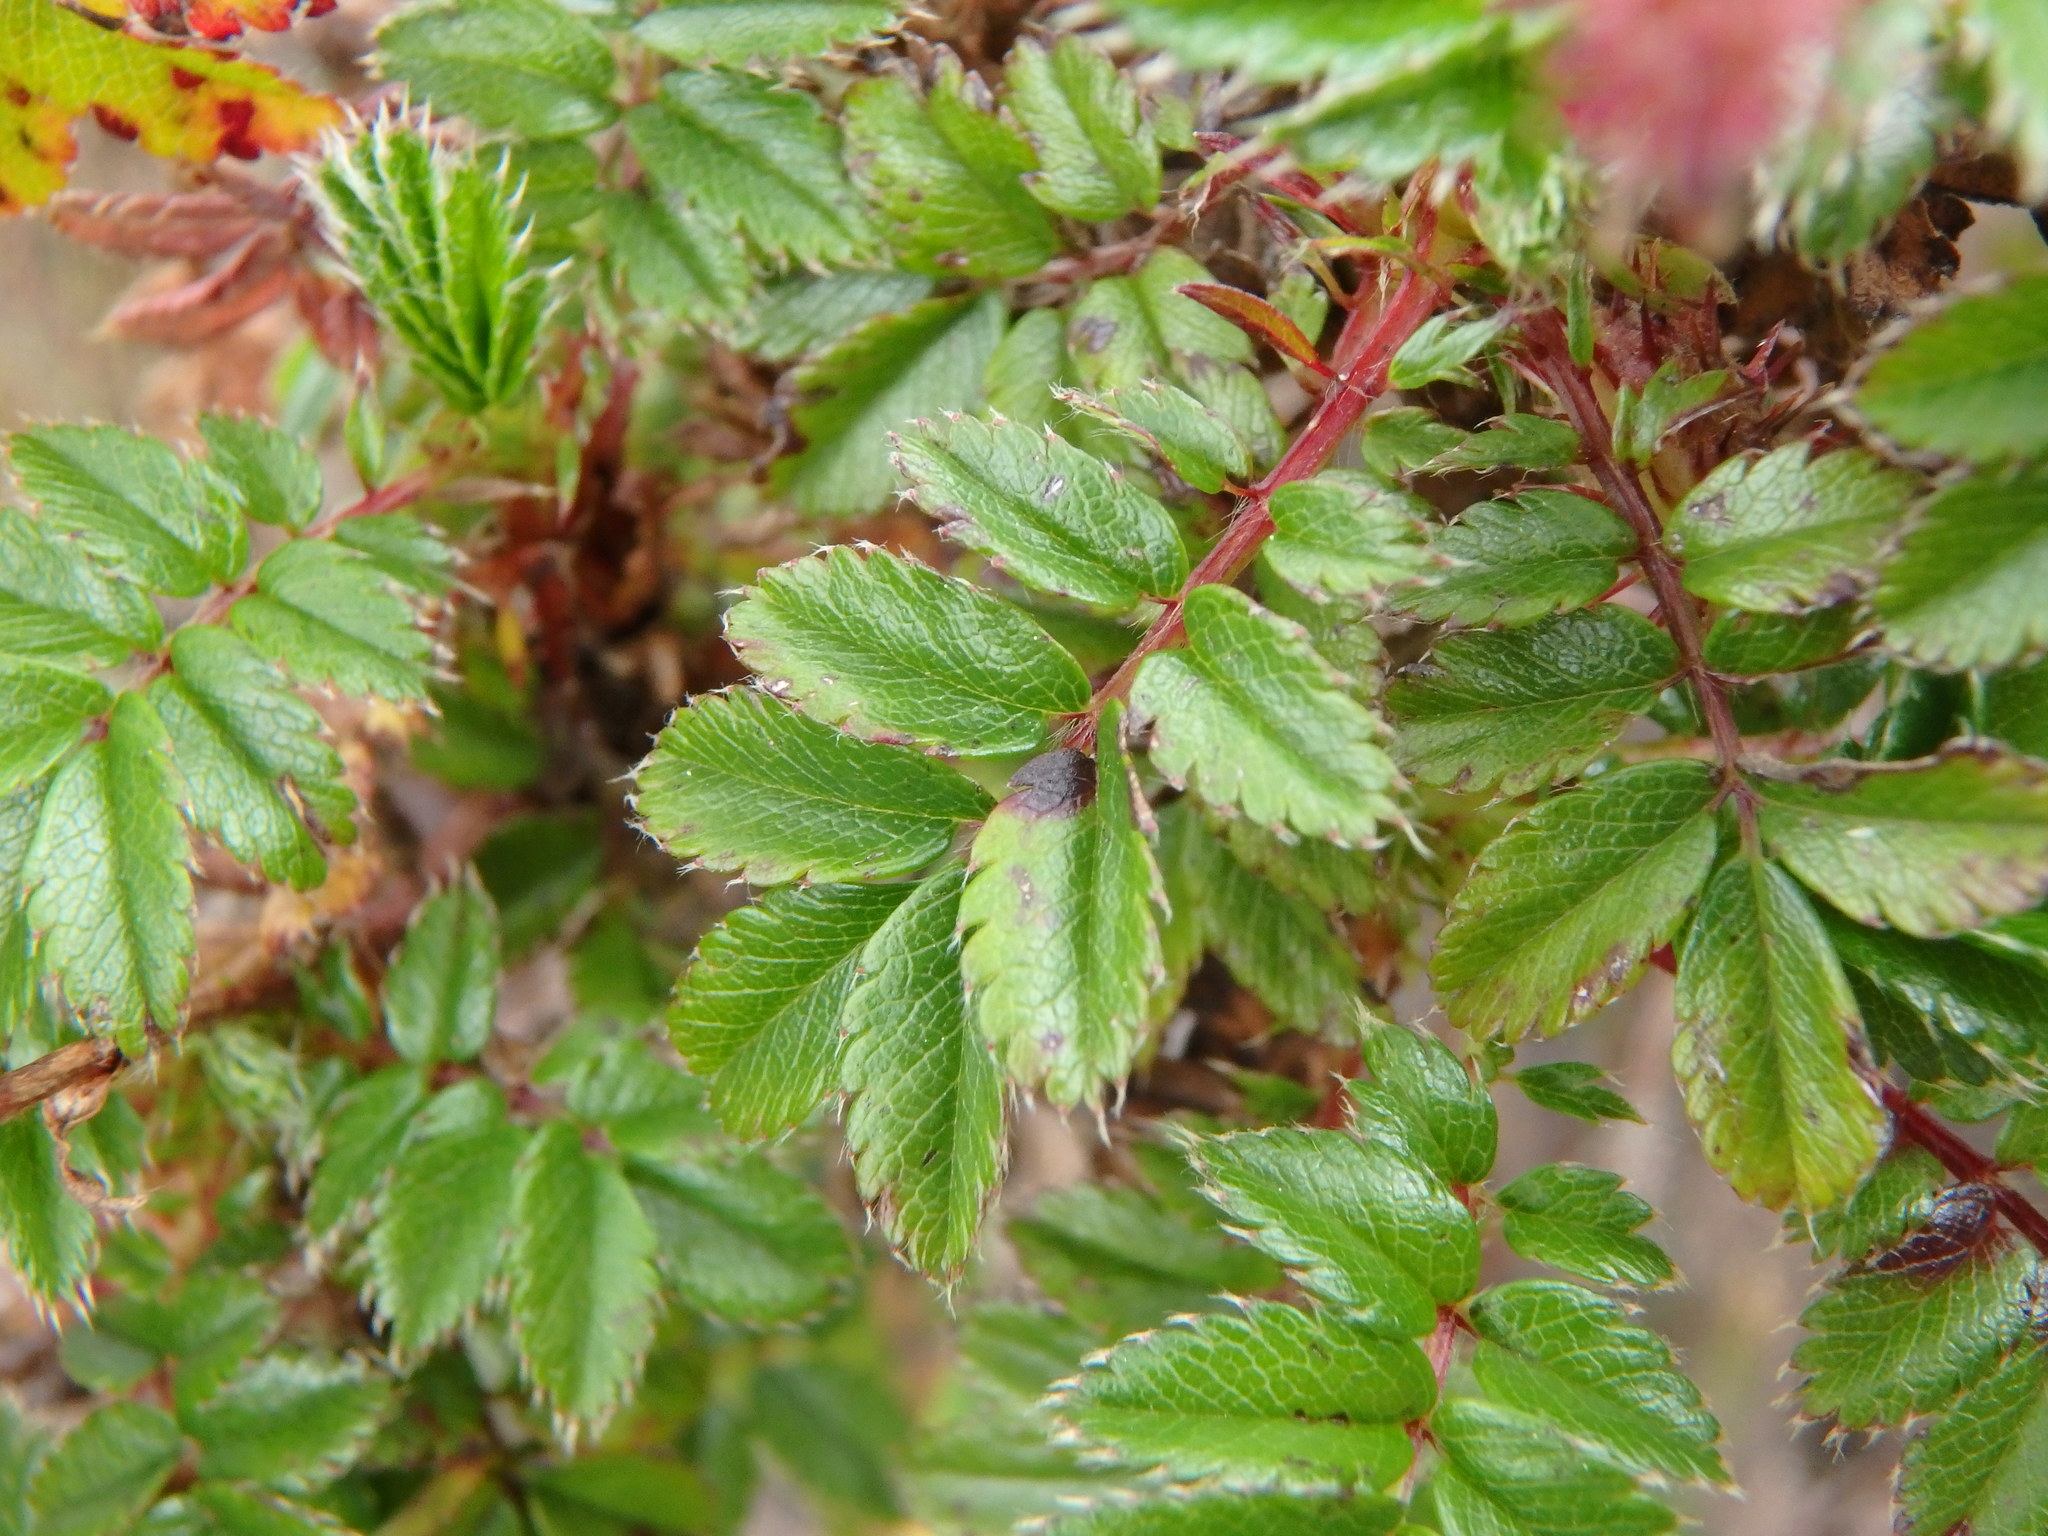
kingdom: Plantae
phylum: Tracheophyta
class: Magnoliopsida
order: Rosales
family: Rosaceae
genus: Acaena
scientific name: Acaena elongata
